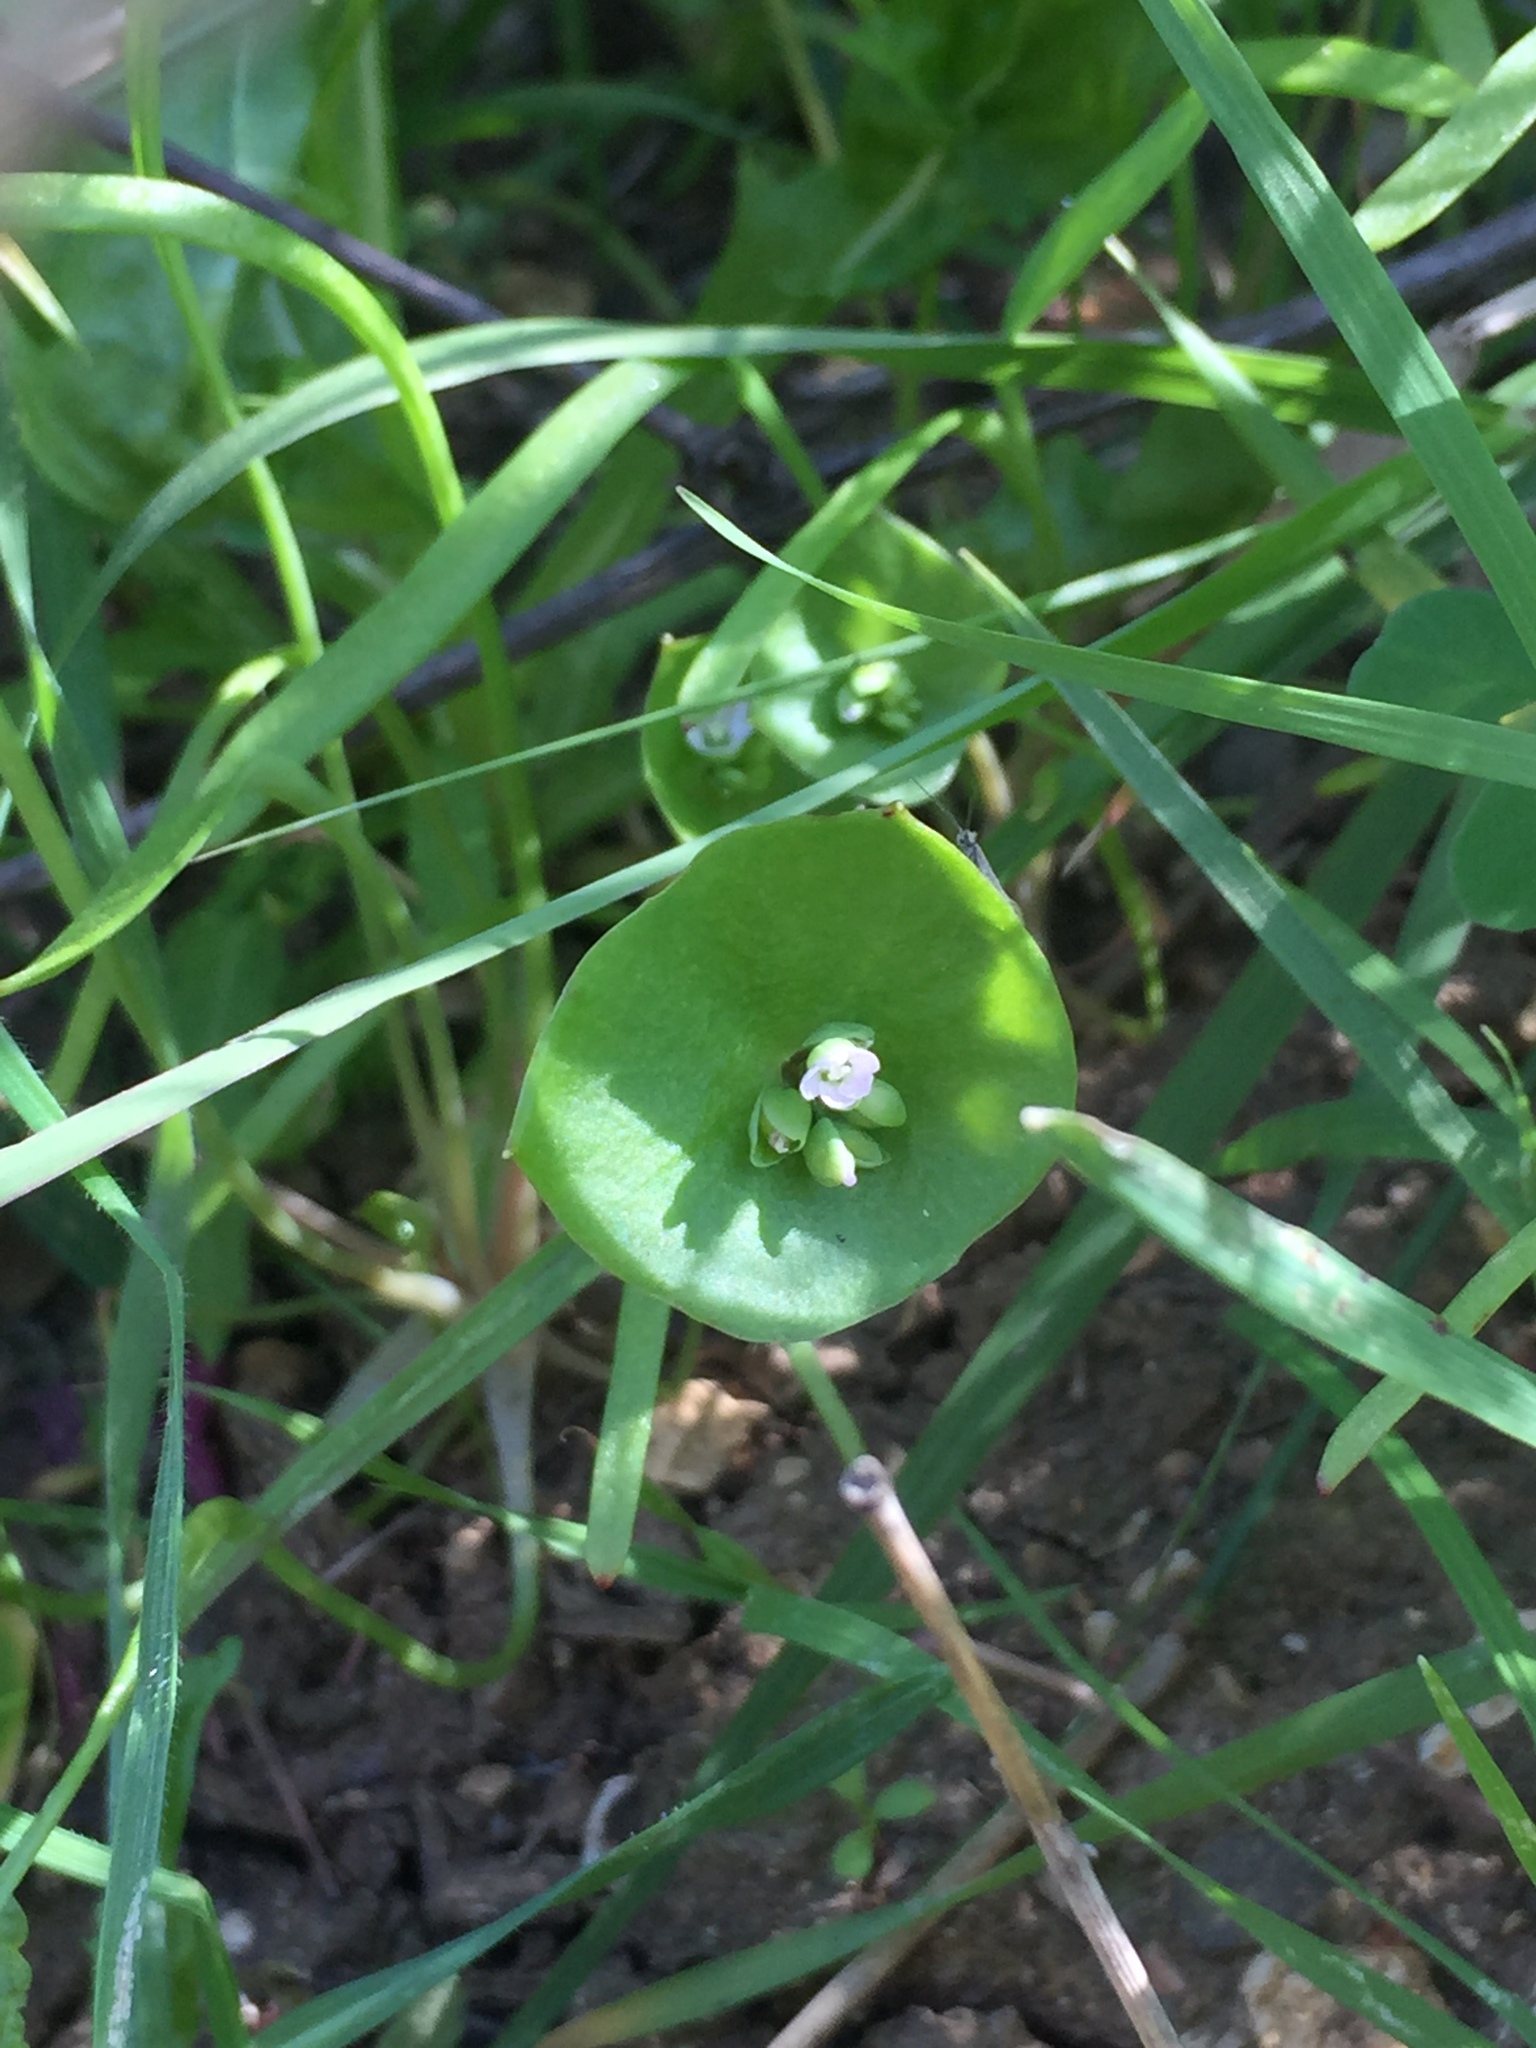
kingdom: Plantae
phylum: Tracheophyta
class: Magnoliopsida
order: Caryophyllales
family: Montiaceae
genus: Claytonia
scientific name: Claytonia perfoliata
